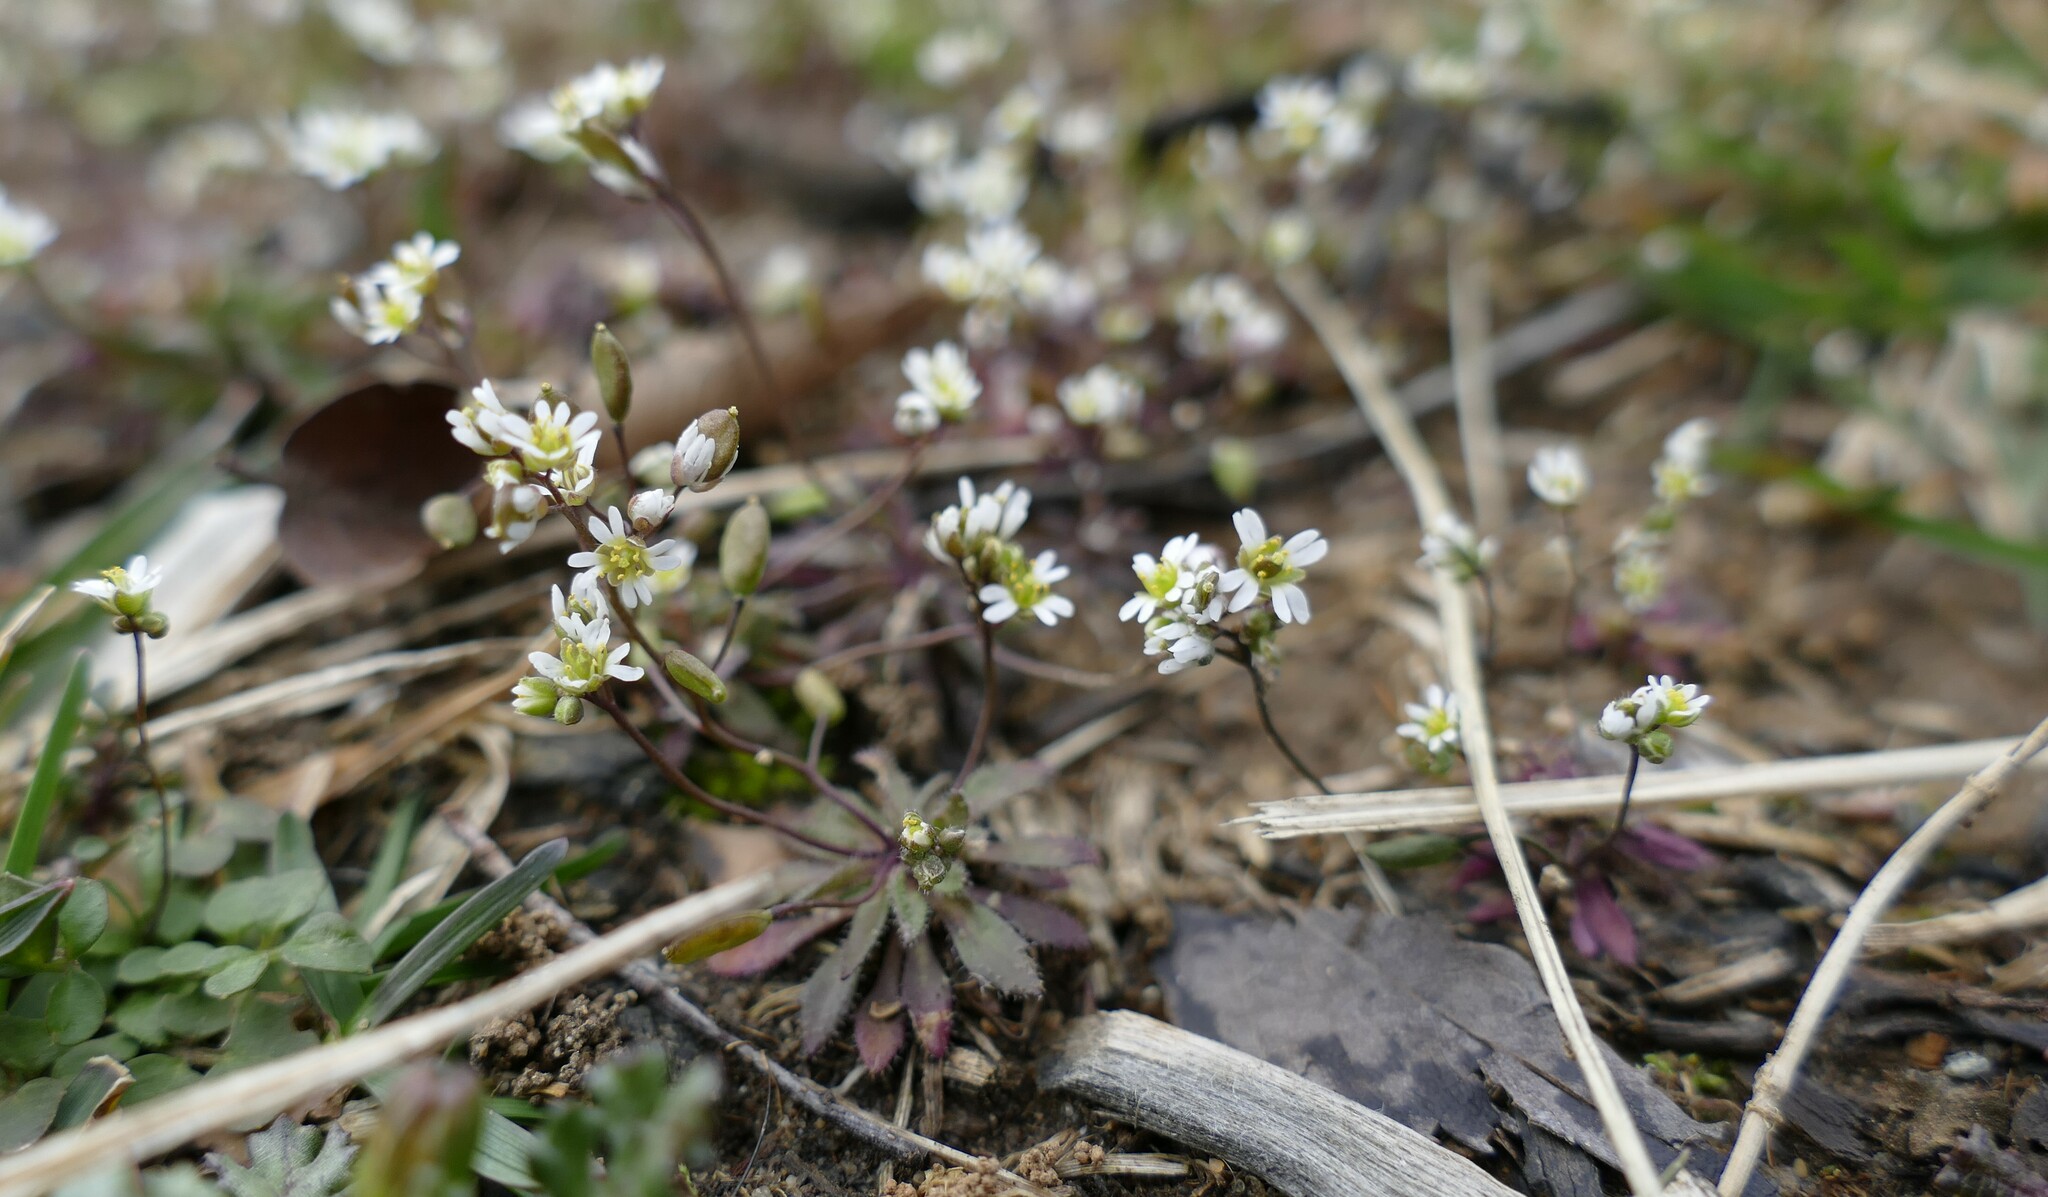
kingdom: Plantae
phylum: Tracheophyta
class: Magnoliopsida
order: Brassicales
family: Brassicaceae
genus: Draba
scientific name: Draba verna
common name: Spring draba
